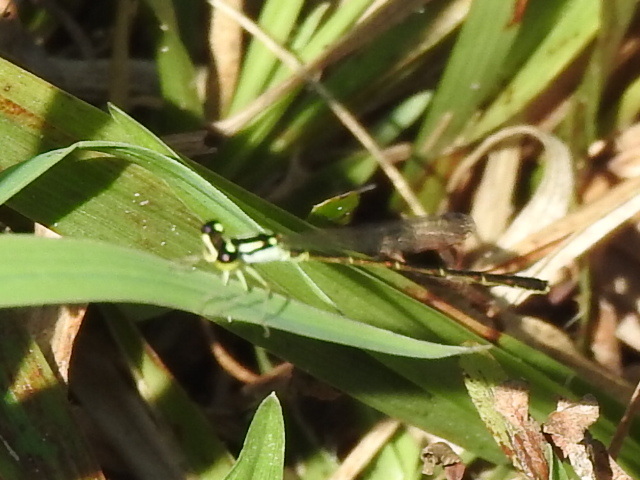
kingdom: Animalia
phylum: Arthropoda
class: Insecta
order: Odonata
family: Coenagrionidae
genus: Ischnura
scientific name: Ischnura posita
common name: Fragile forktail
